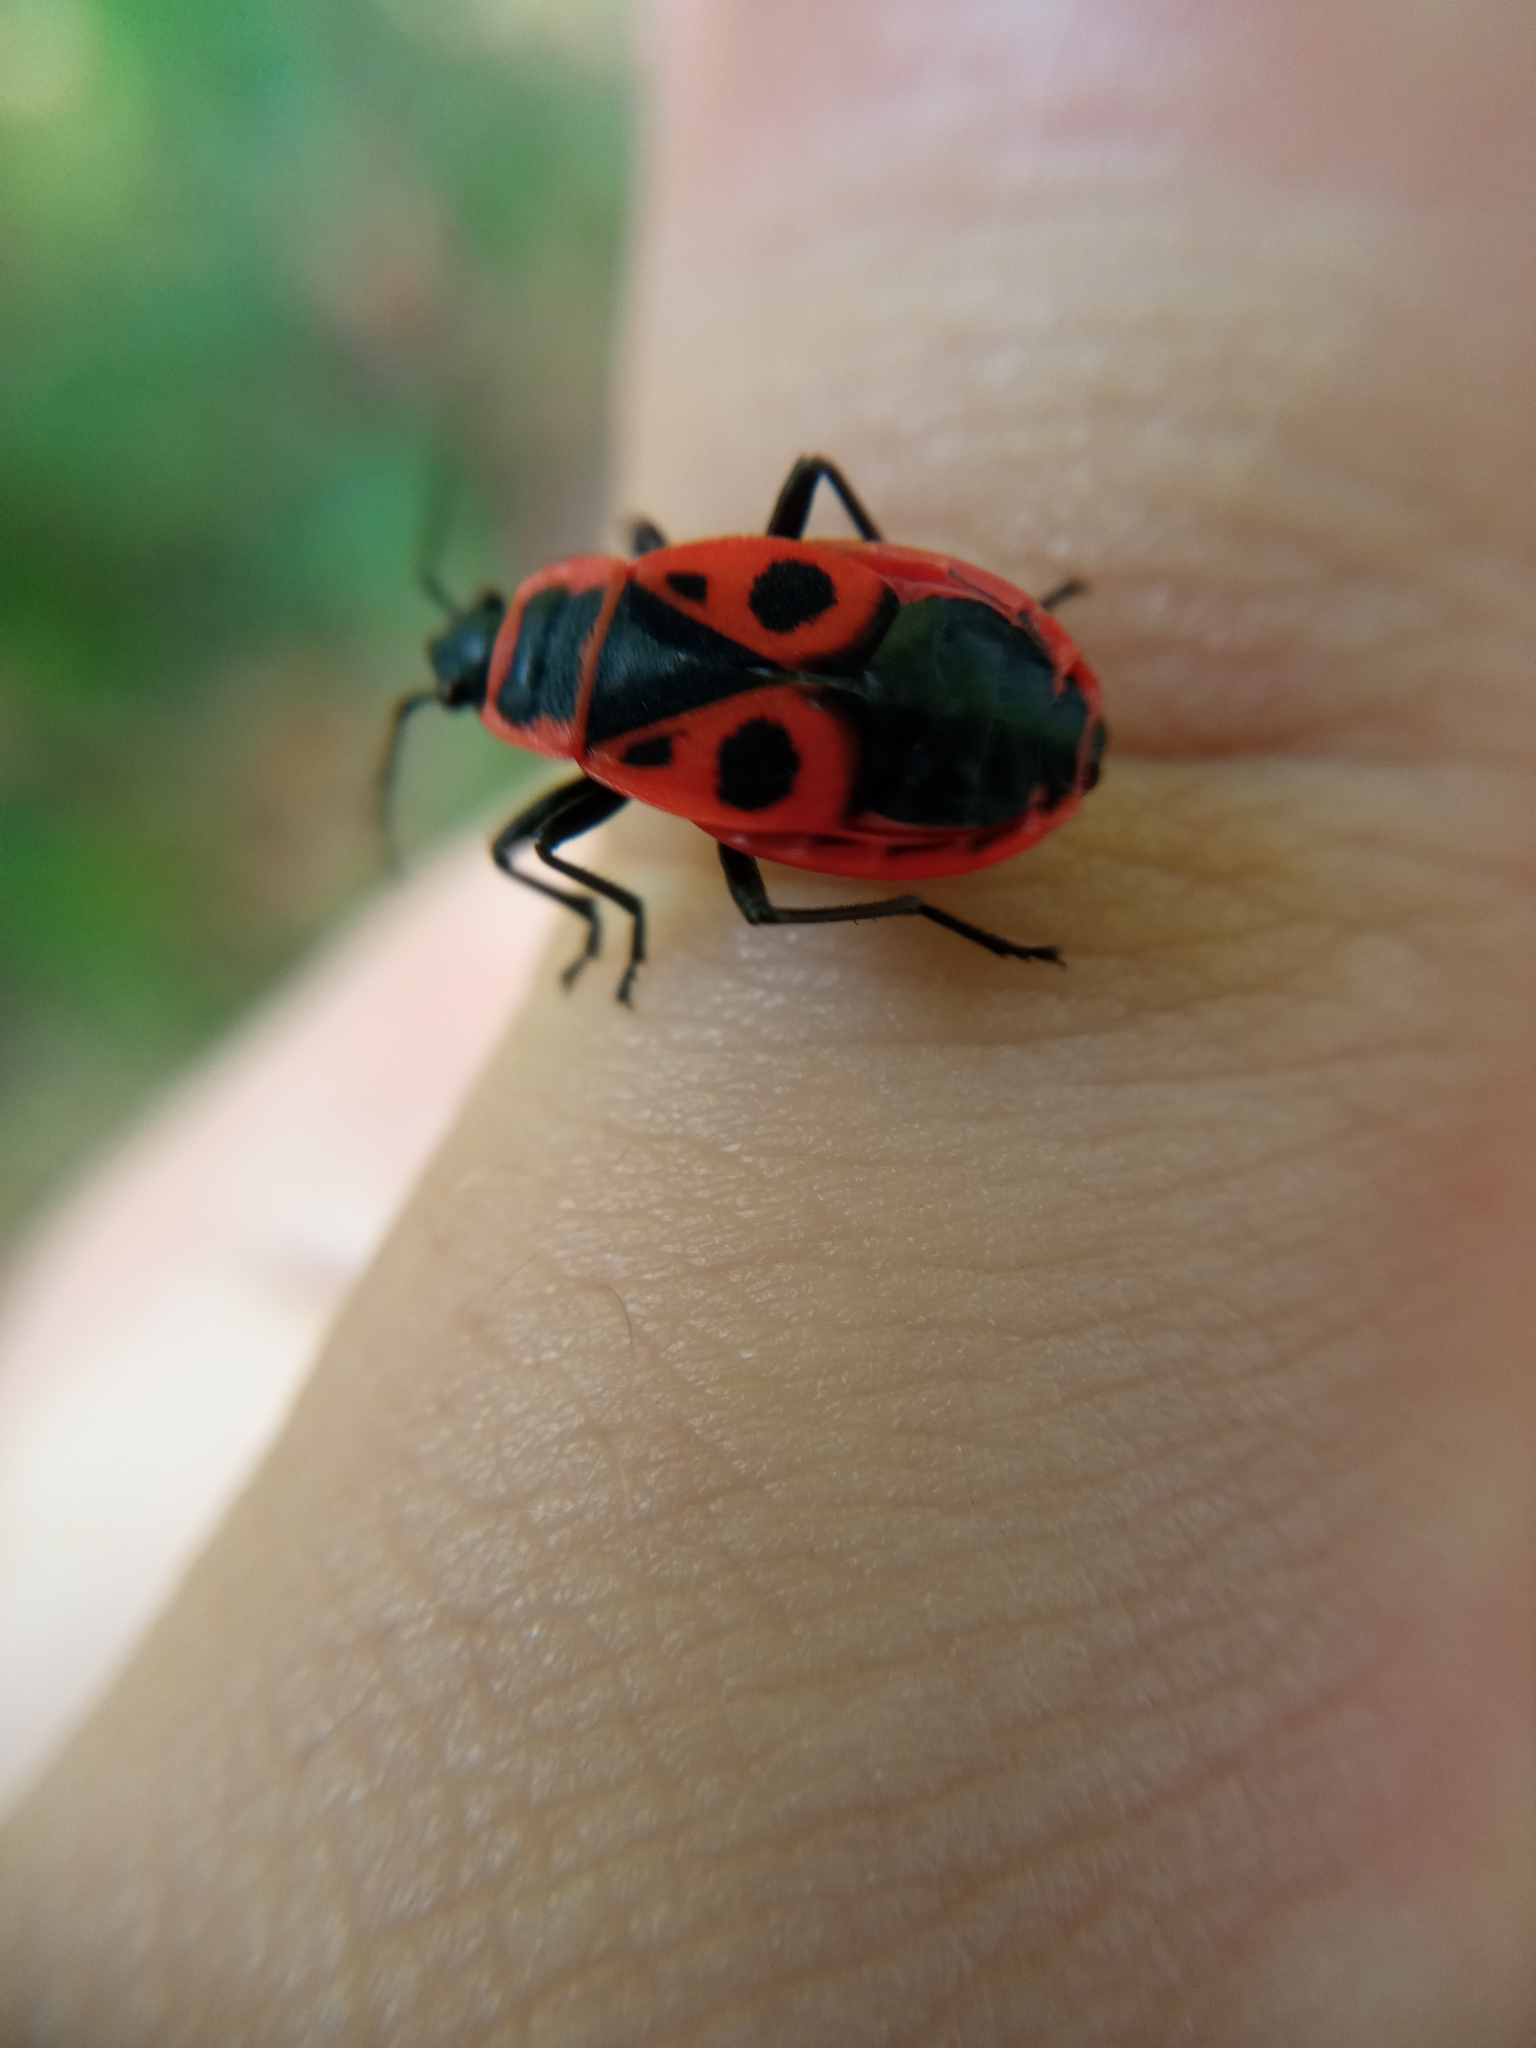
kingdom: Animalia
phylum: Arthropoda
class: Insecta
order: Hemiptera
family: Pyrrhocoridae
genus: Pyrrhocoris
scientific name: Pyrrhocoris apterus
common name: Firebug
